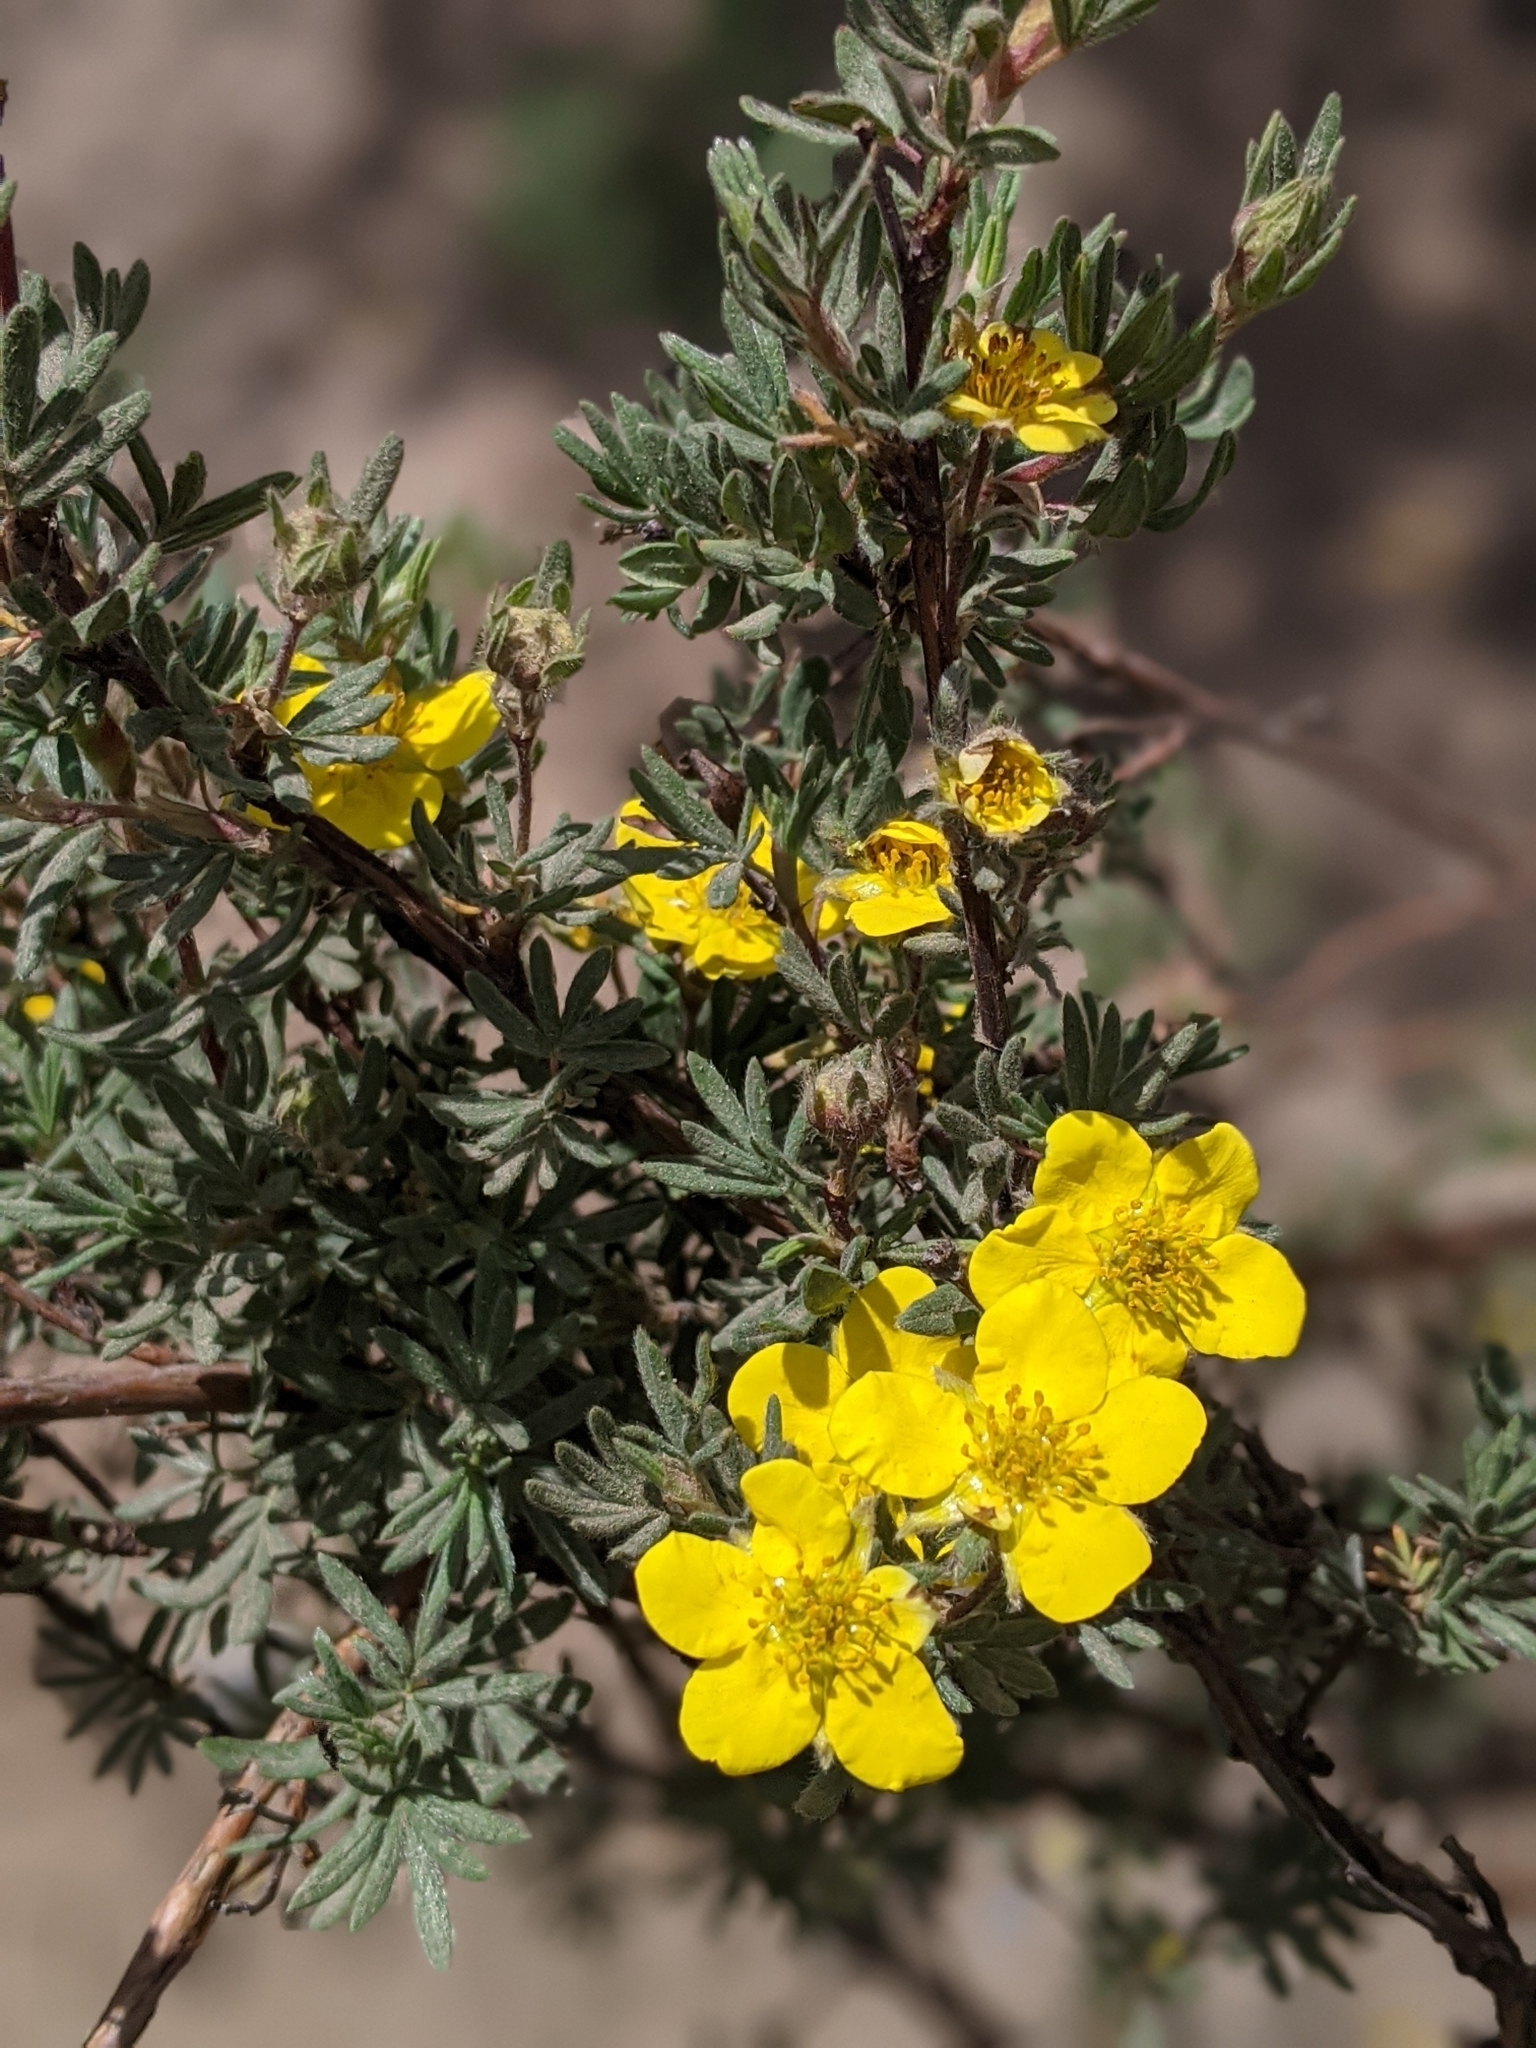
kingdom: Plantae
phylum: Tracheophyta
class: Magnoliopsida
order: Rosales
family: Rosaceae
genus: Dasiphora
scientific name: Dasiphora fruticosa
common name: Shrubby cinquefoil
